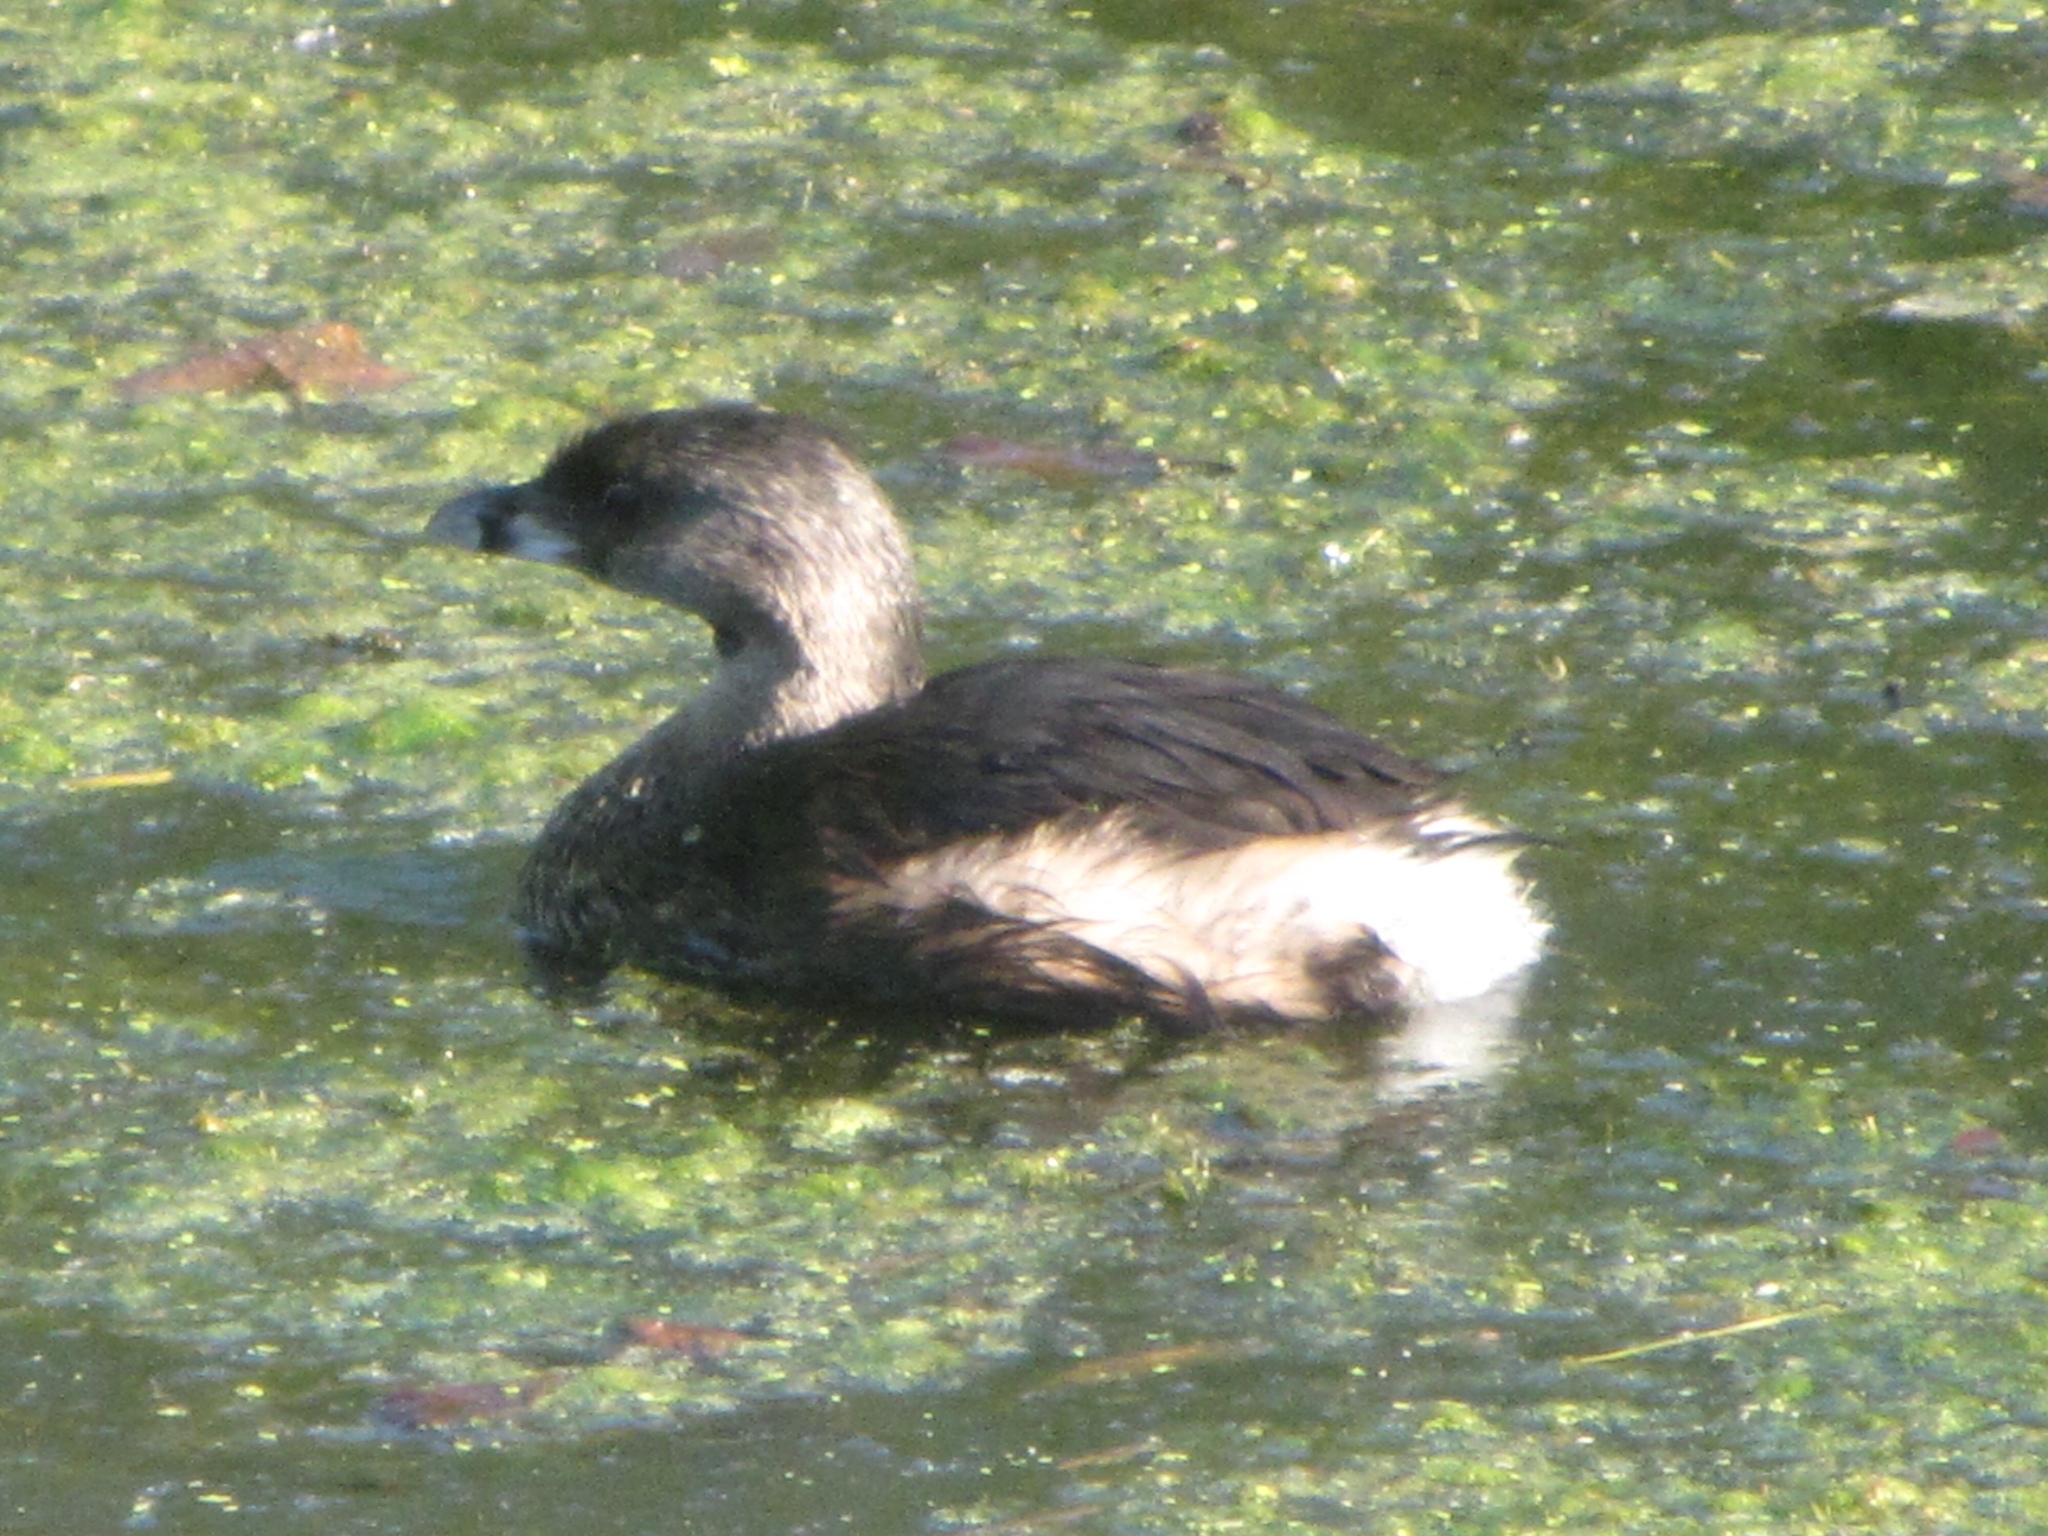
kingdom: Animalia
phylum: Chordata
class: Aves
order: Podicipediformes
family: Podicipedidae
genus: Podilymbus
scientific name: Podilymbus podiceps
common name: Pied-billed grebe
